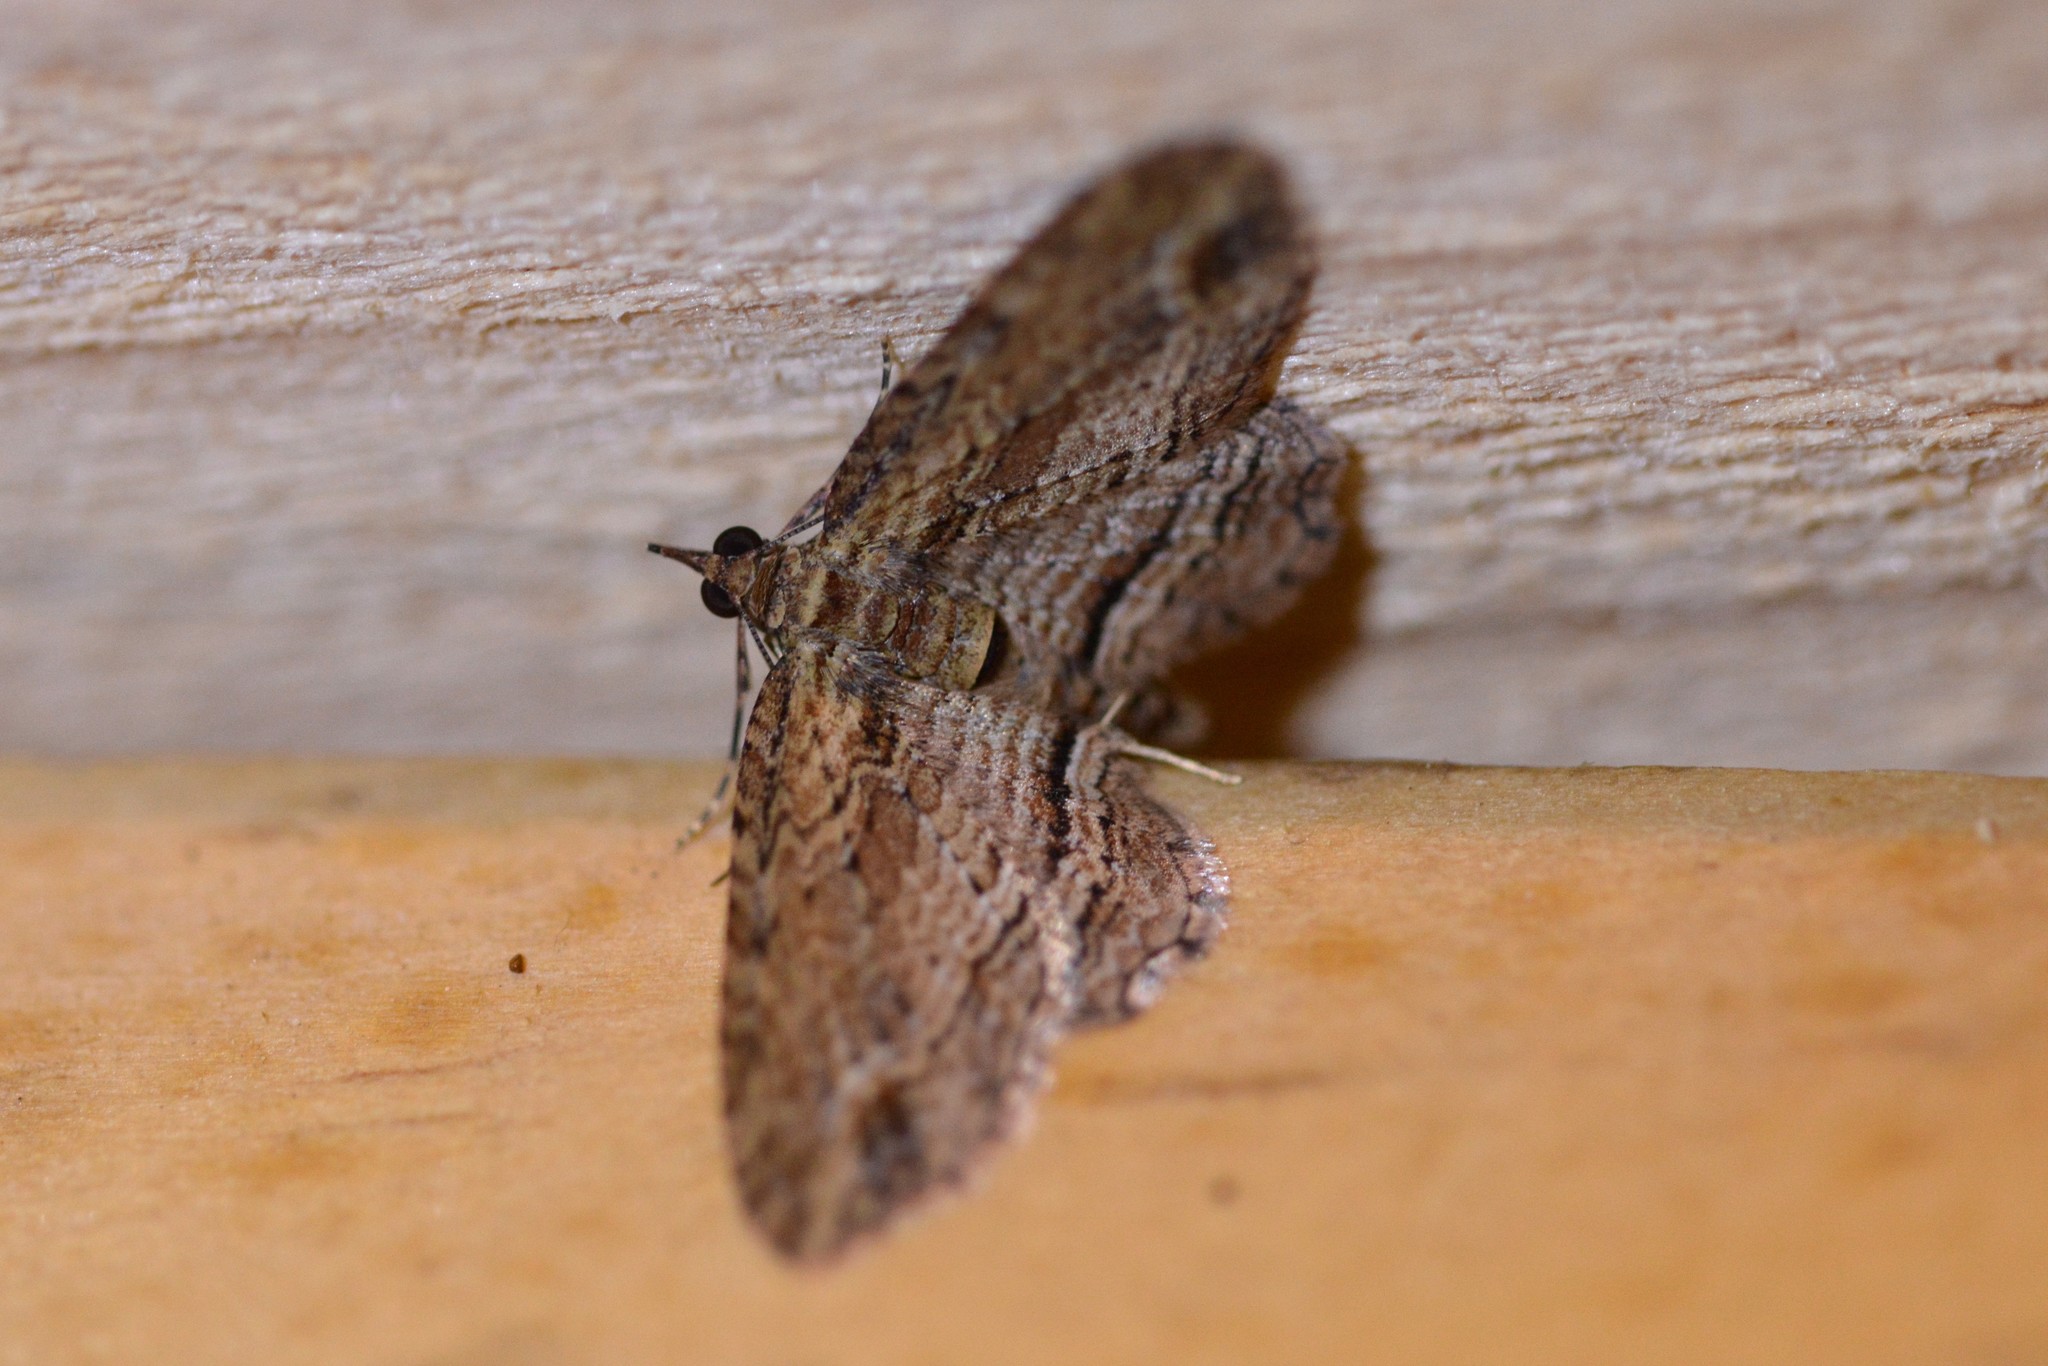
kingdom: Animalia
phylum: Arthropoda
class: Insecta
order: Lepidoptera
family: Geometridae
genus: Chloroclystis
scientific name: Chloroclystis filata
